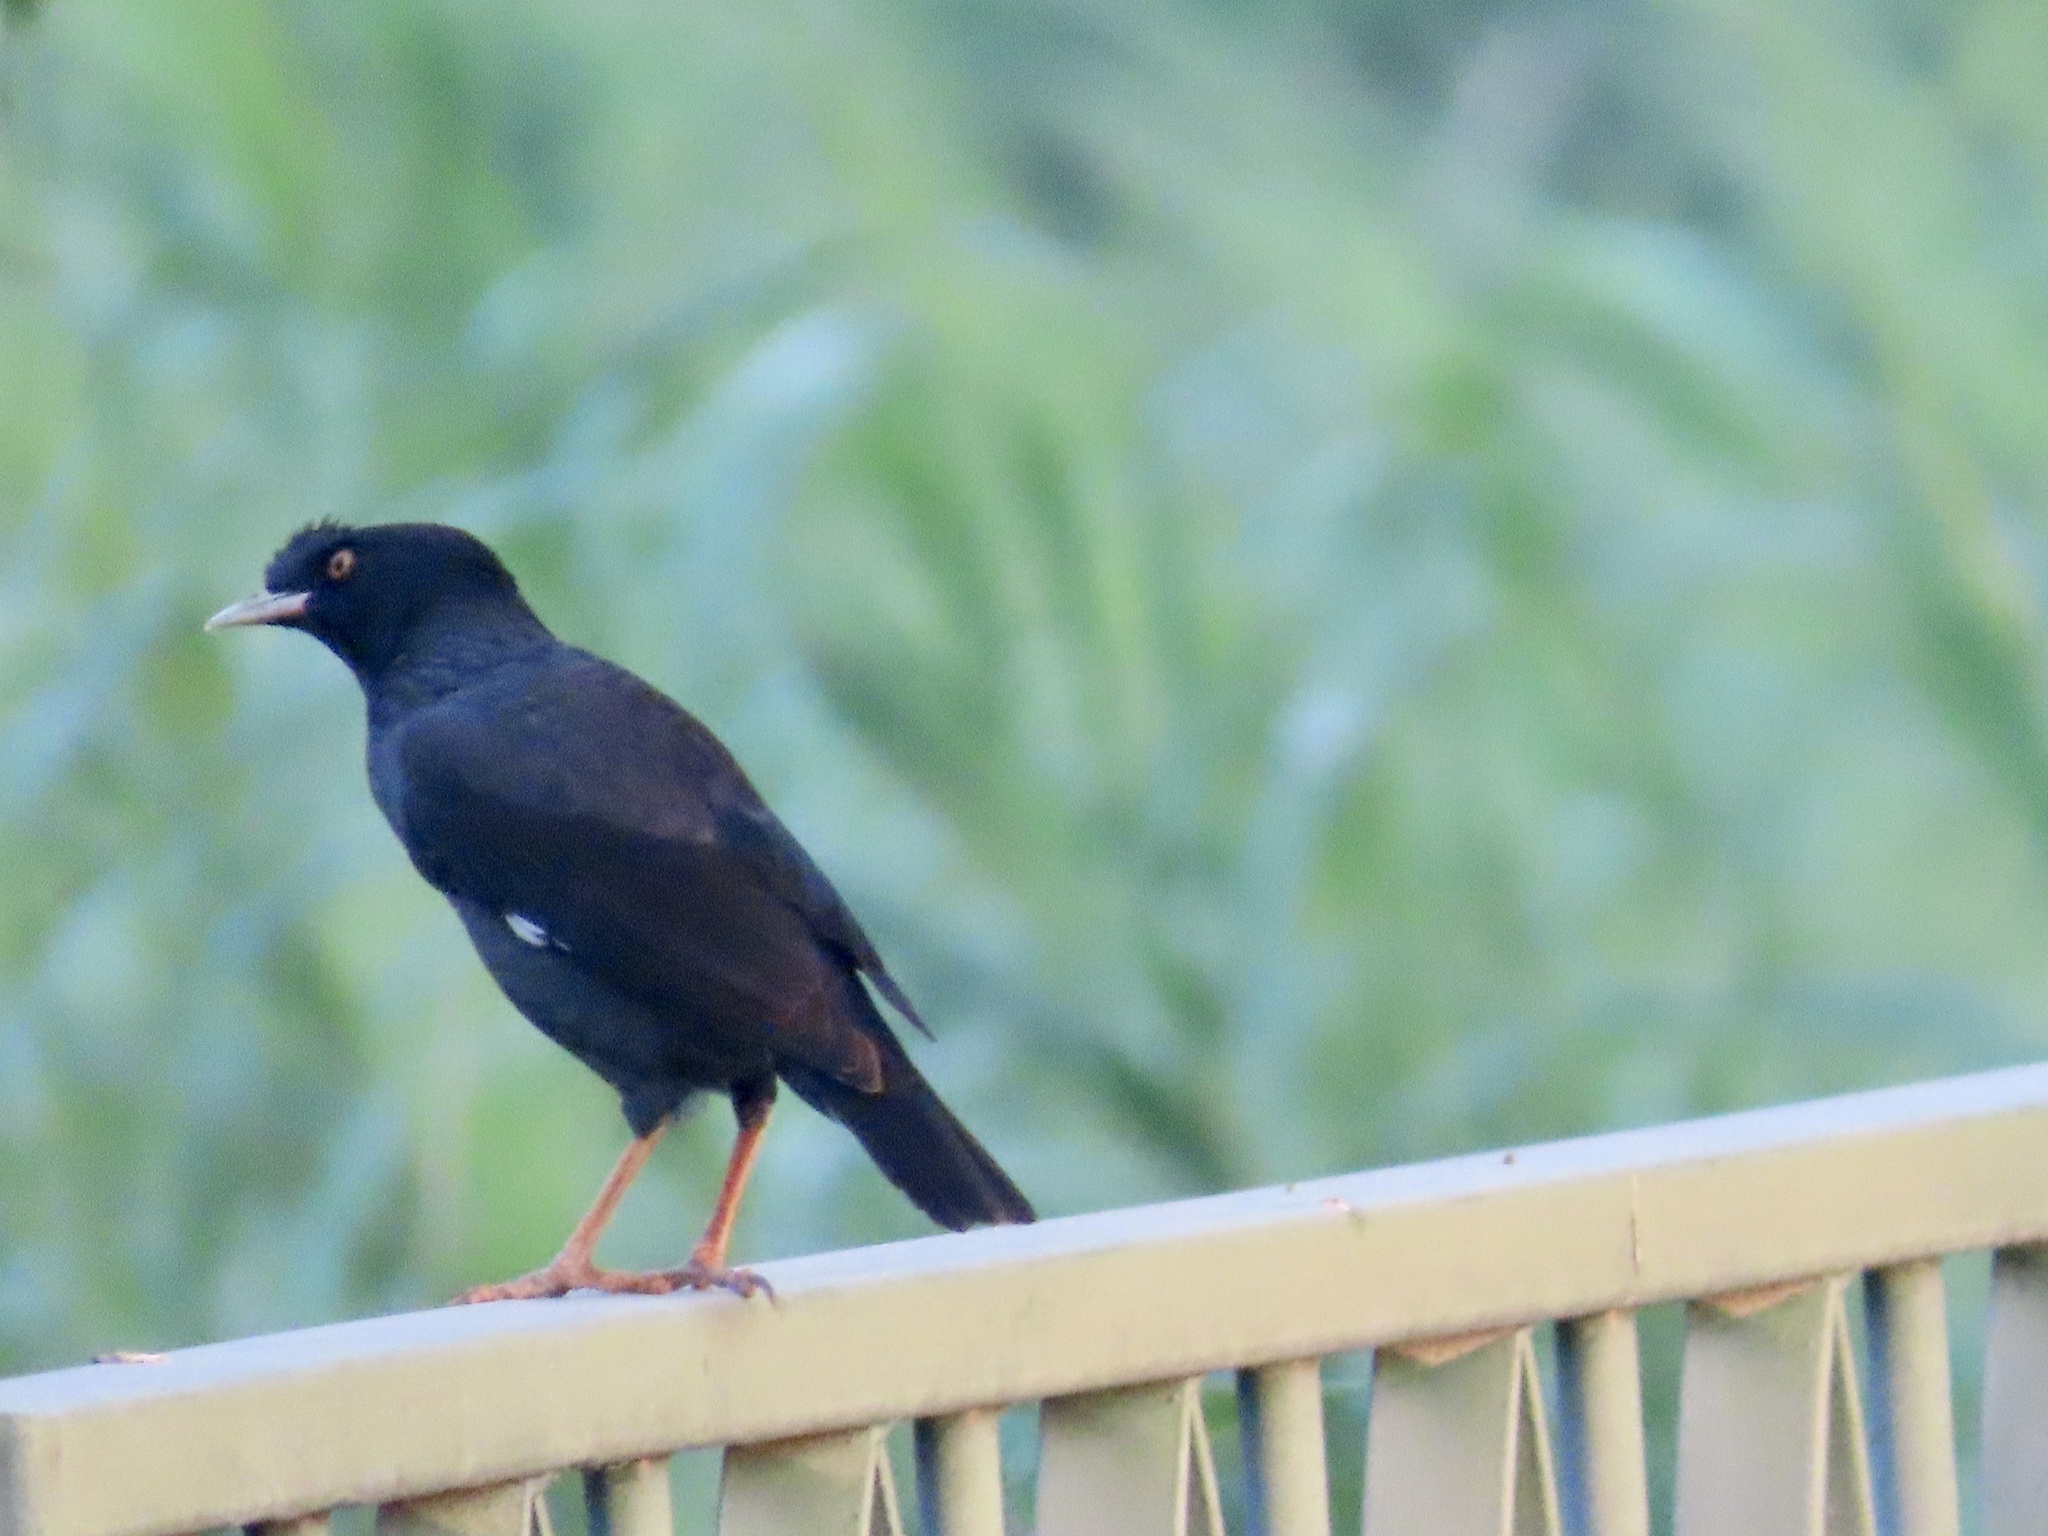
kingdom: Animalia
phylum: Chordata
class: Aves
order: Passeriformes
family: Sturnidae
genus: Acridotheres
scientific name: Acridotheres cristatellus
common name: Crested myna
